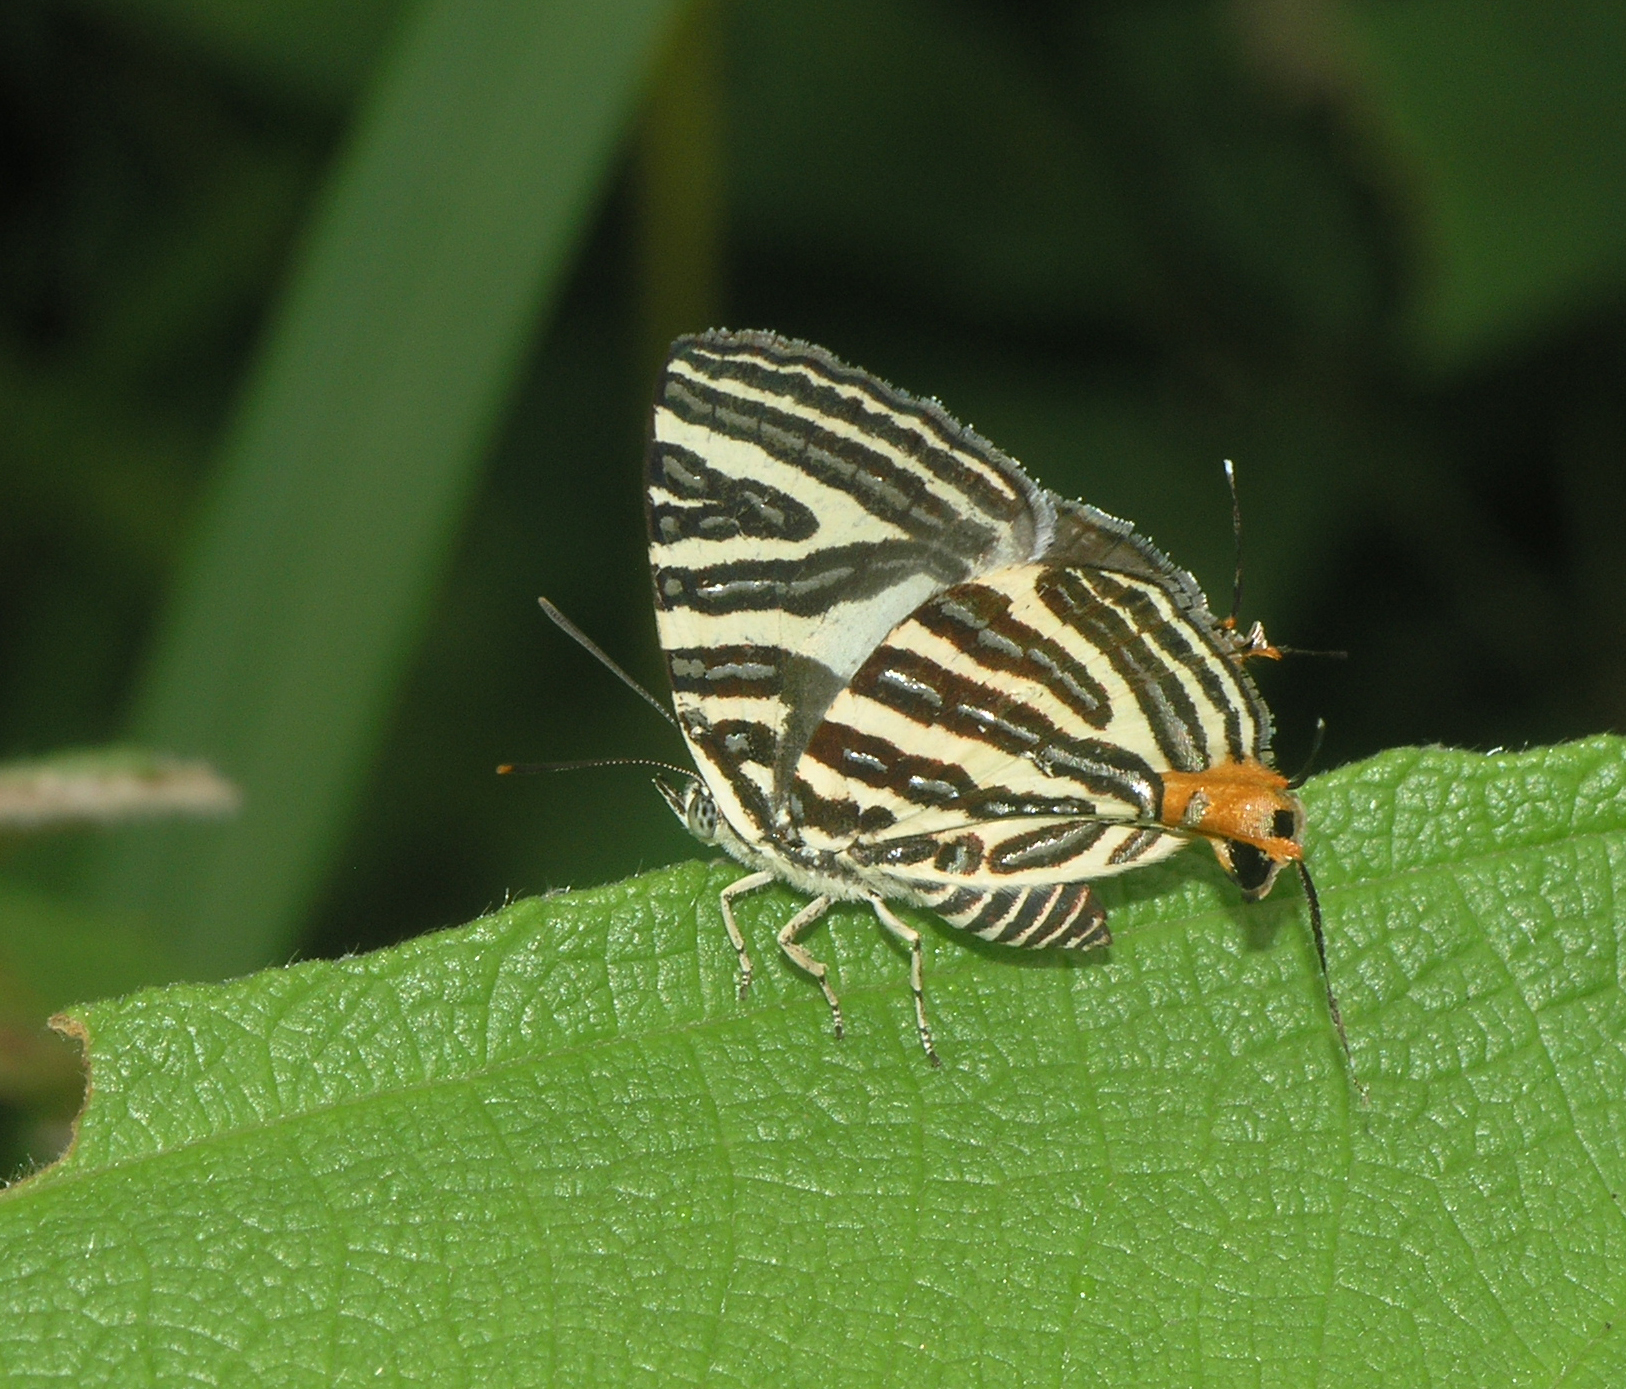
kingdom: Animalia
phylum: Arthropoda
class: Insecta
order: Lepidoptera
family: Lycaenidae
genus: Cigaritis
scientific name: Cigaritis lohita
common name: Long-banded silverline
